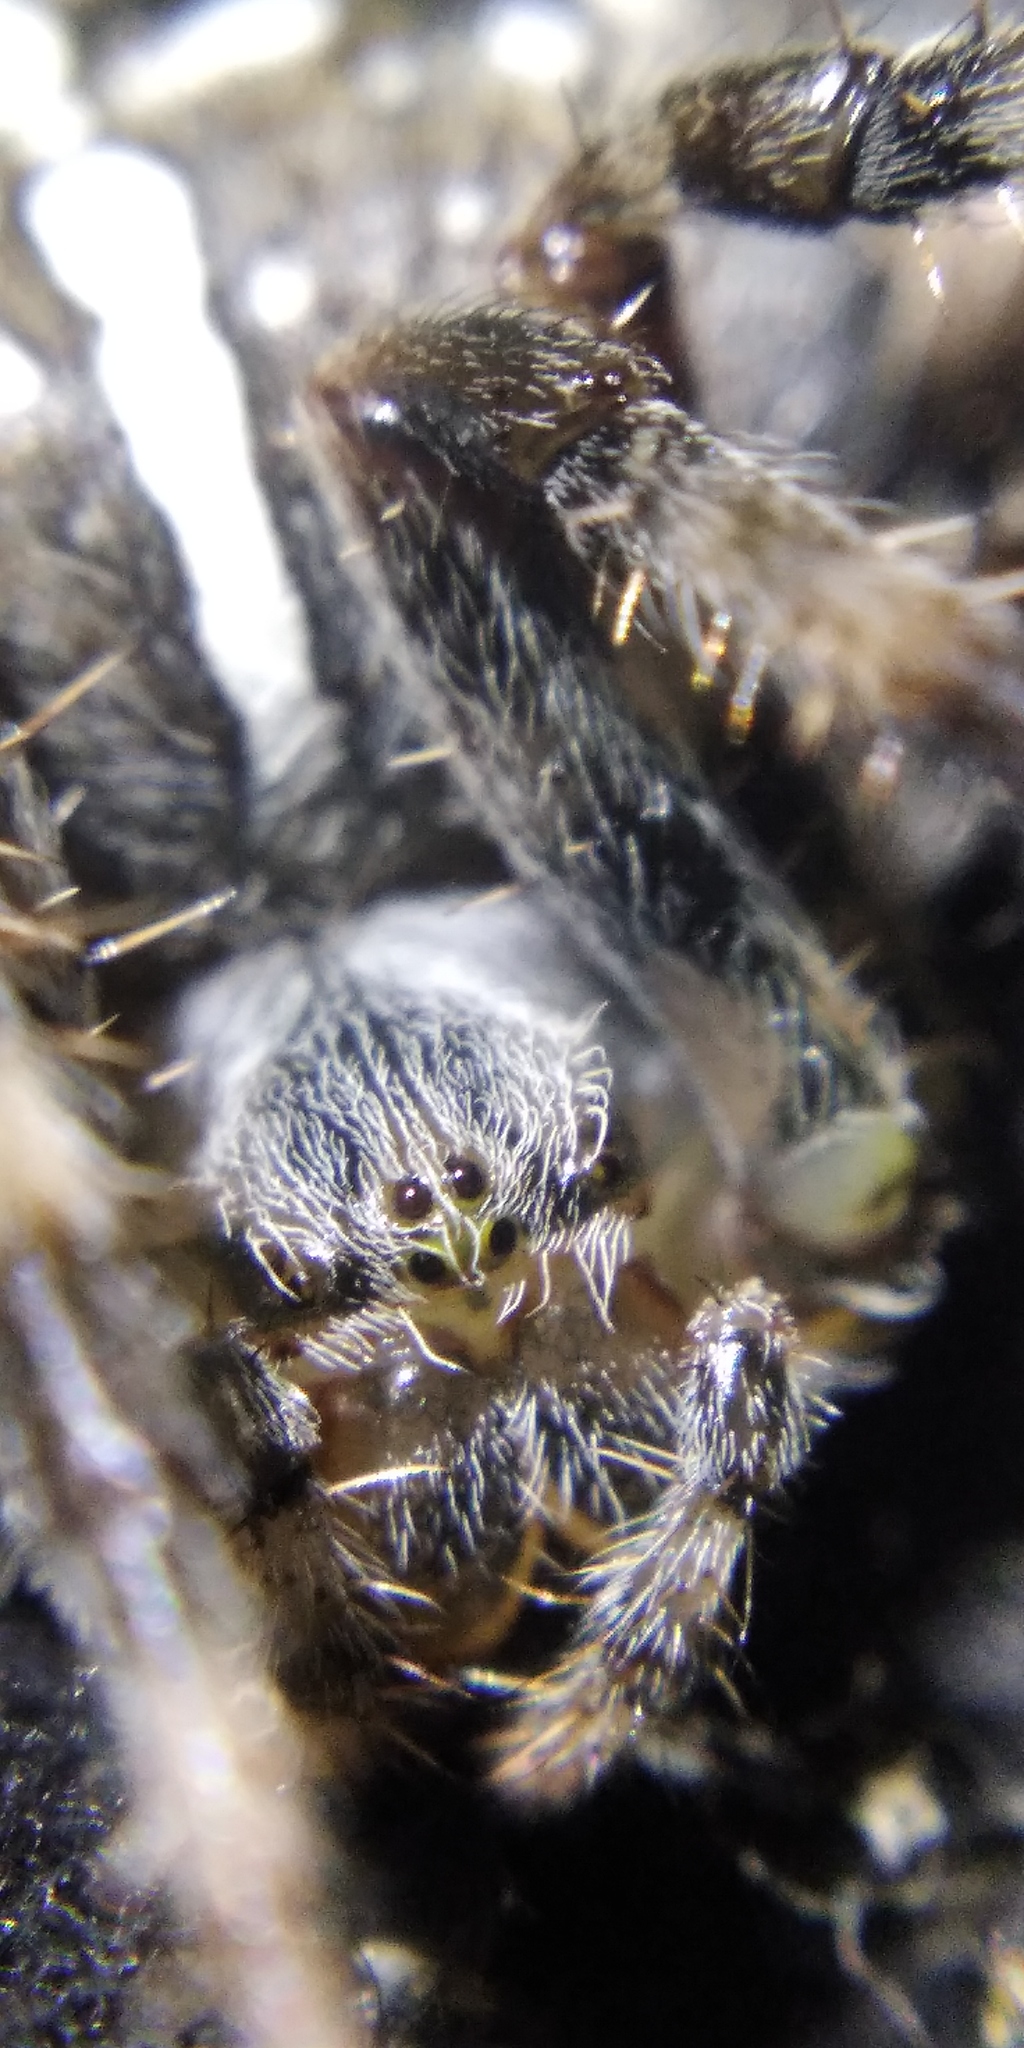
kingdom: Animalia
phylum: Arthropoda
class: Arachnida
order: Araneae
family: Araneidae
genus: Araneus
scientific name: Araneus diadematus
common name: Cross orbweaver
